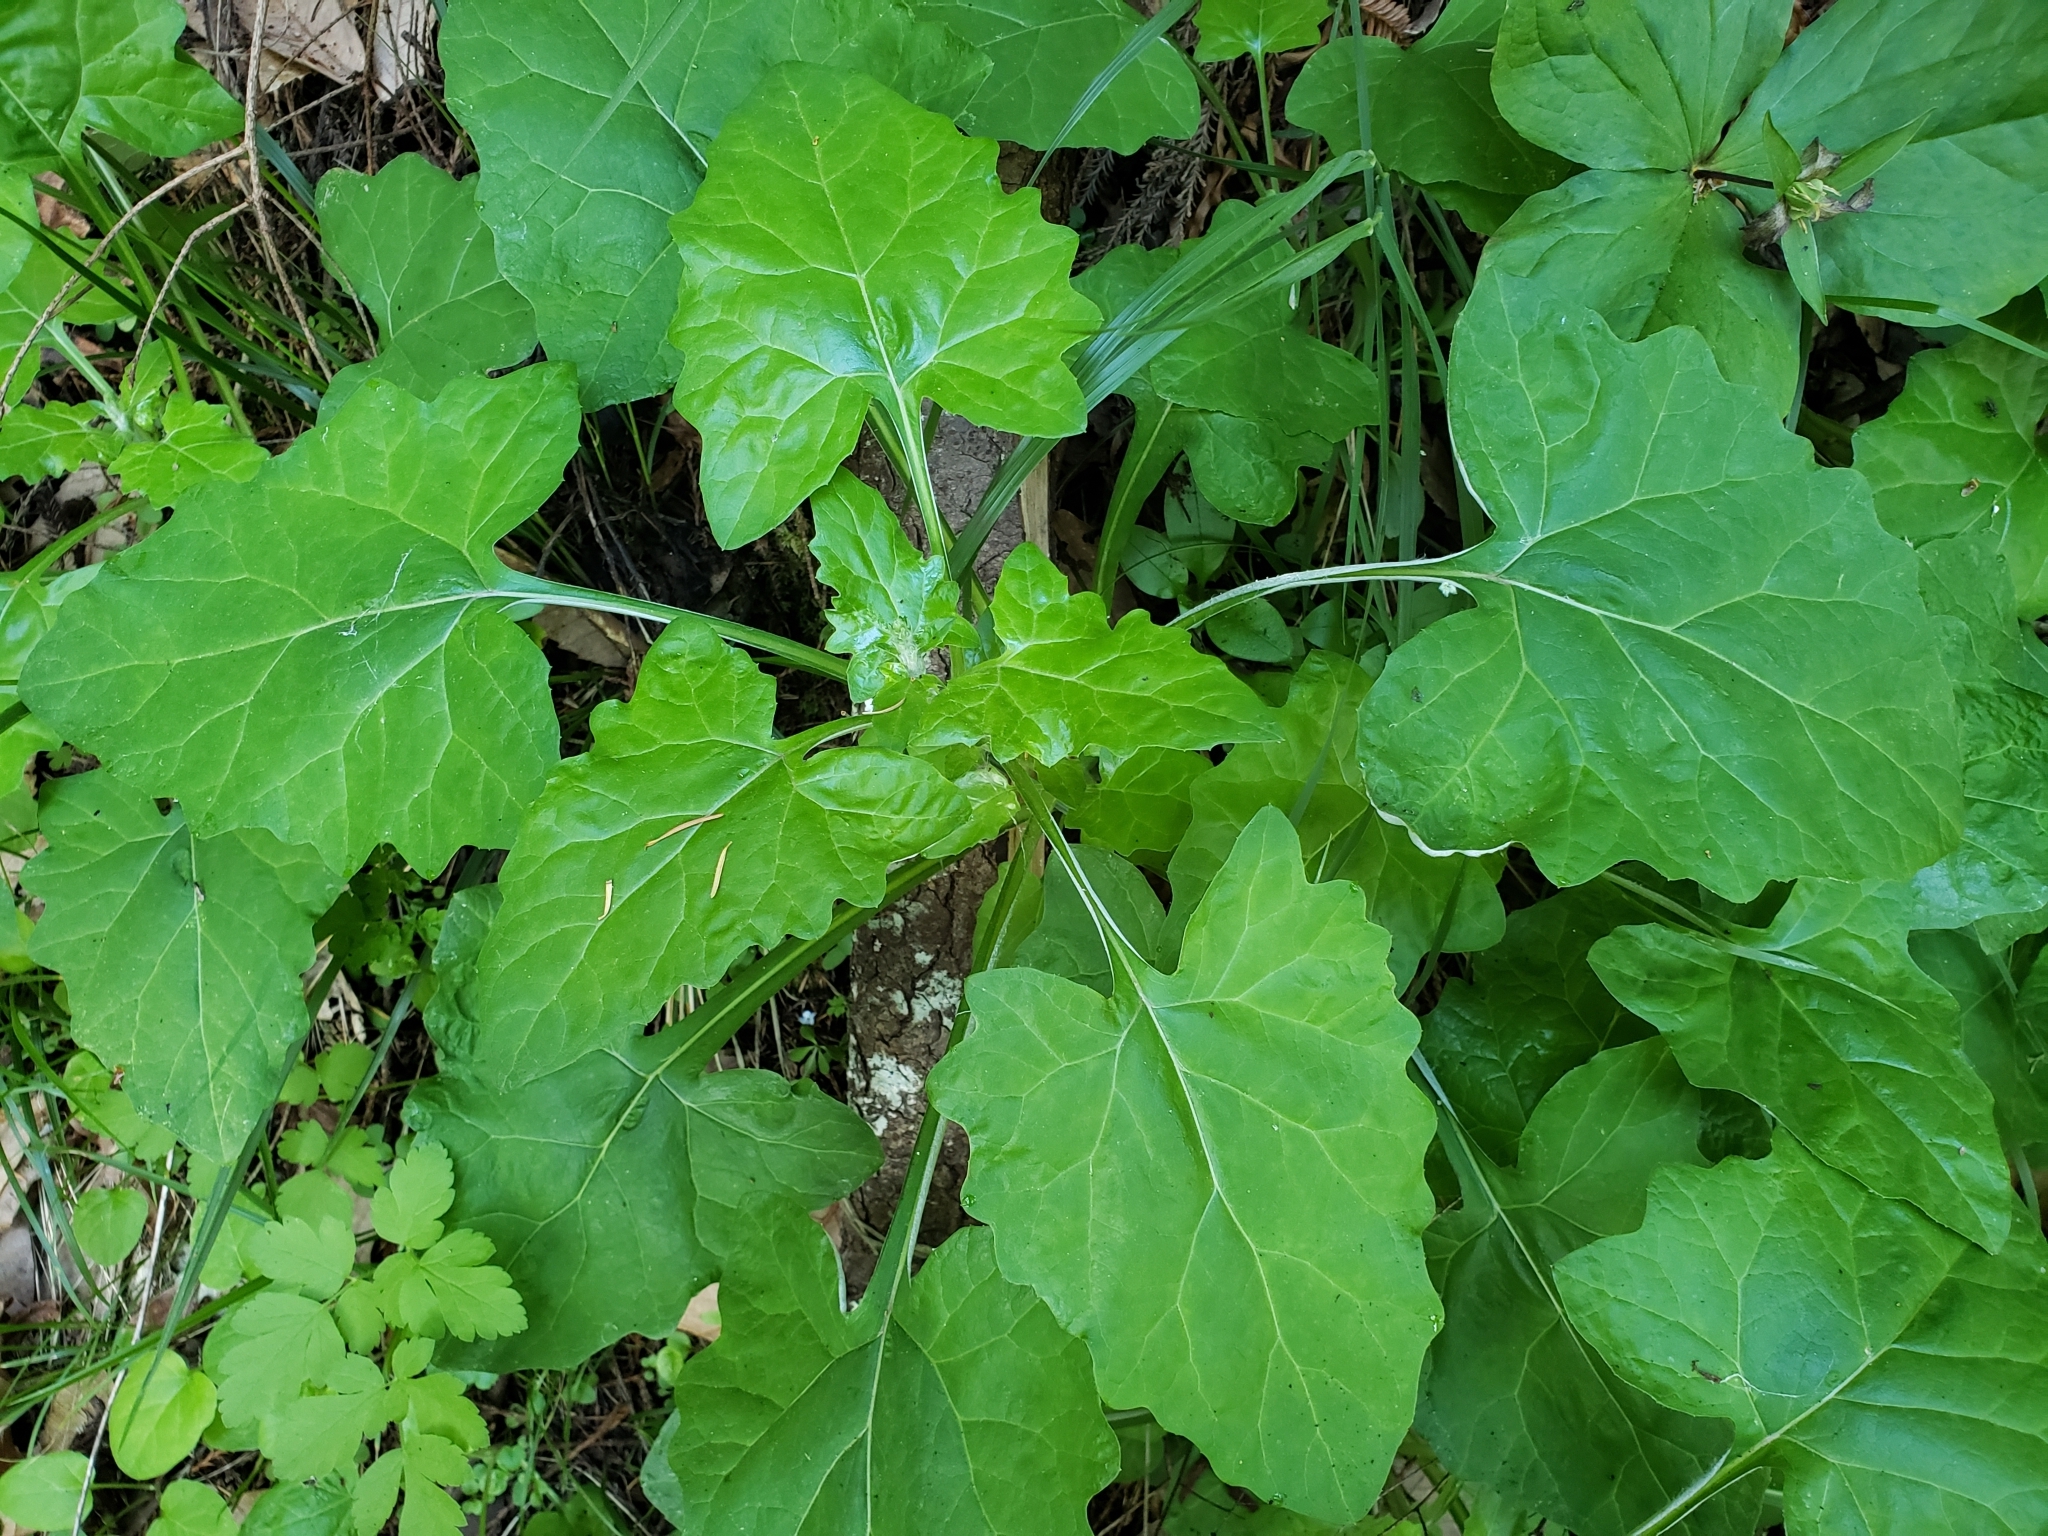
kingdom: Plantae
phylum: Tracheophyta
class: Magnoliopsida
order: Asterales
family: Asteraceae
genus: Adenocaulon
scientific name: Adenocaulon bicolor
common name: Trailplant
